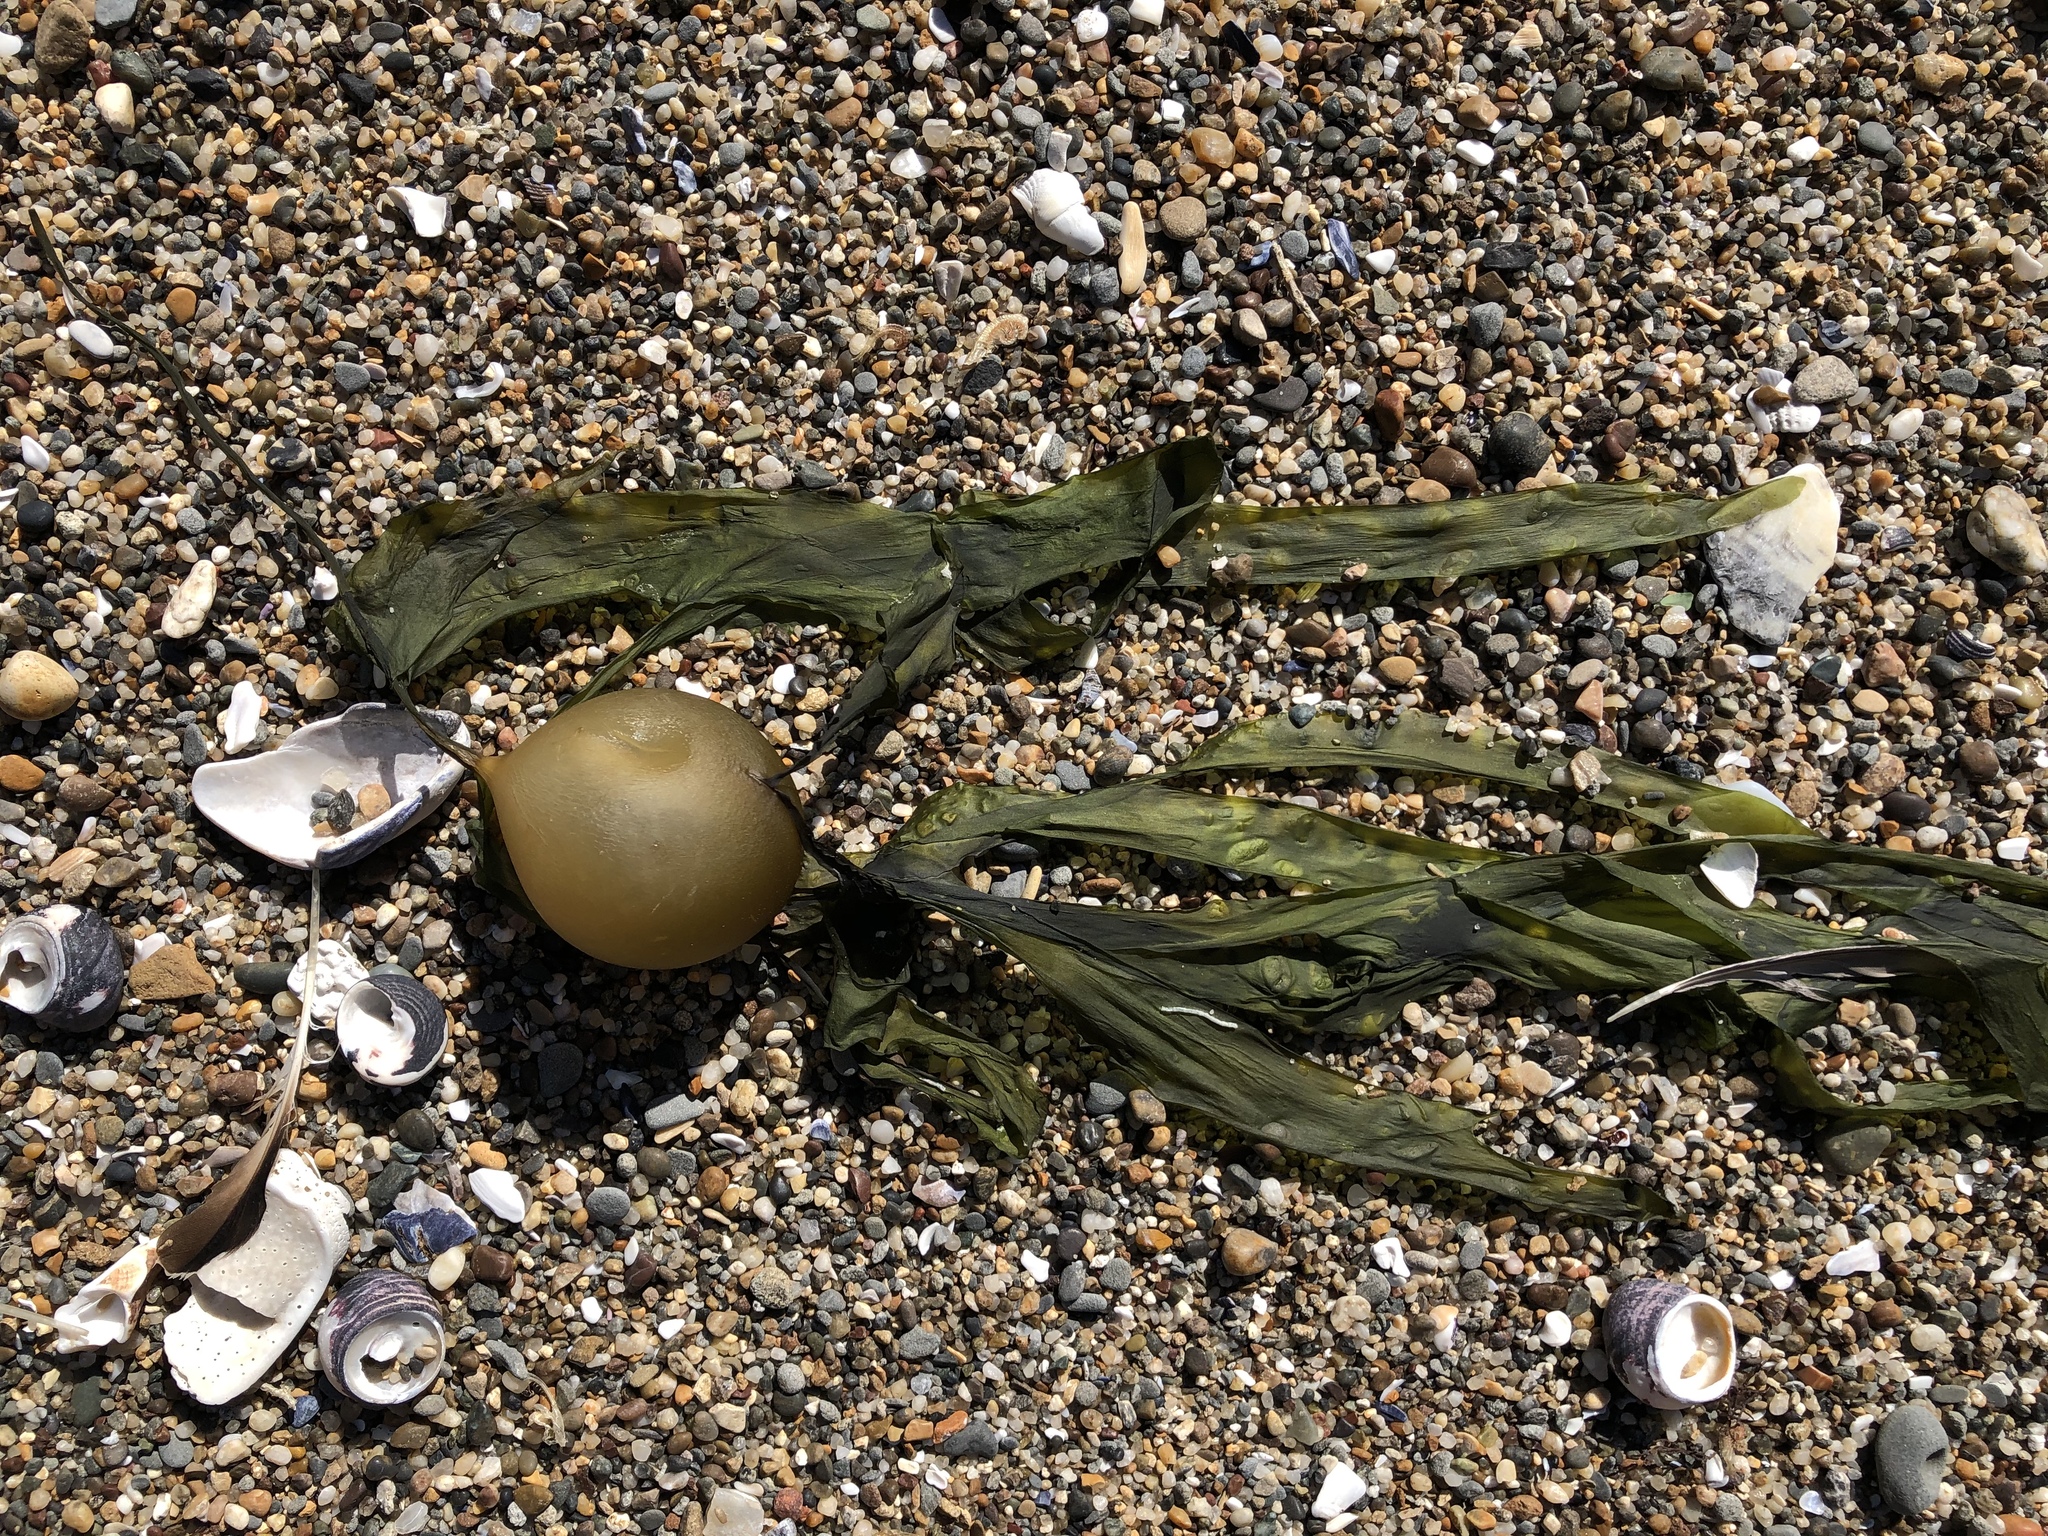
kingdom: Chromista
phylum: Ochrophyta
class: Phaeophyceae
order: Laminariales
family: Laminariaceae
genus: Nereocystis
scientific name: Nereocystis luetkeana
